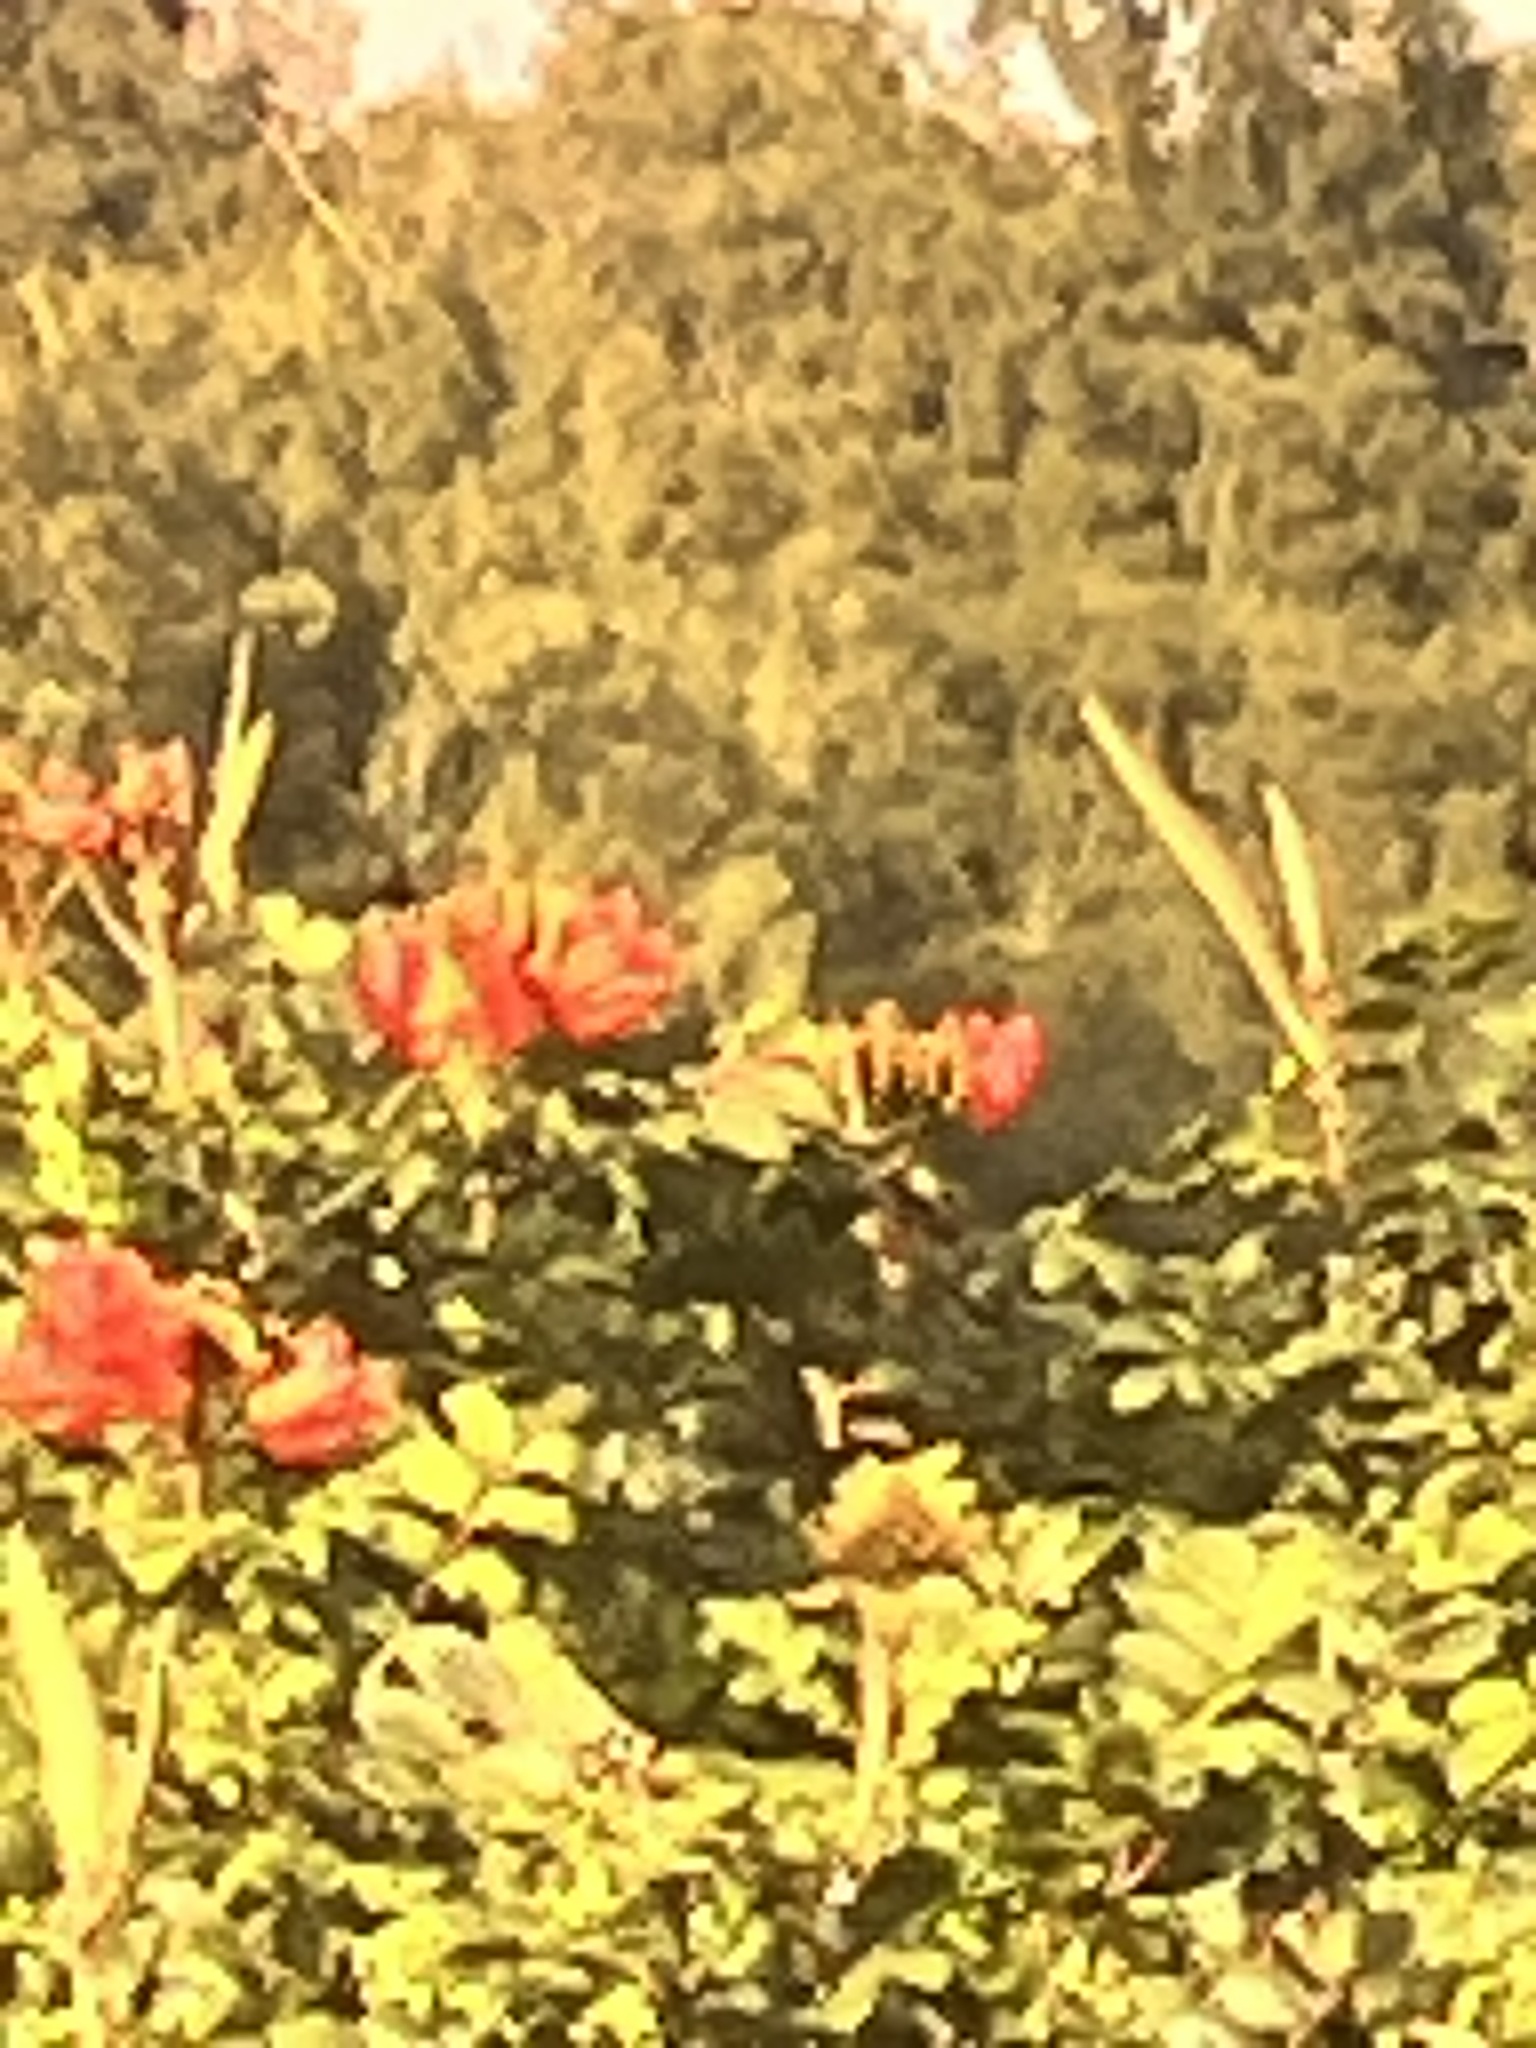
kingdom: Plantae
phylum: Tracheophyta
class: Magnoliopsida
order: Lamiales
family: Bignoniaceae
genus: Spathodea
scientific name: Spathodea campanulata
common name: African tuliptree
